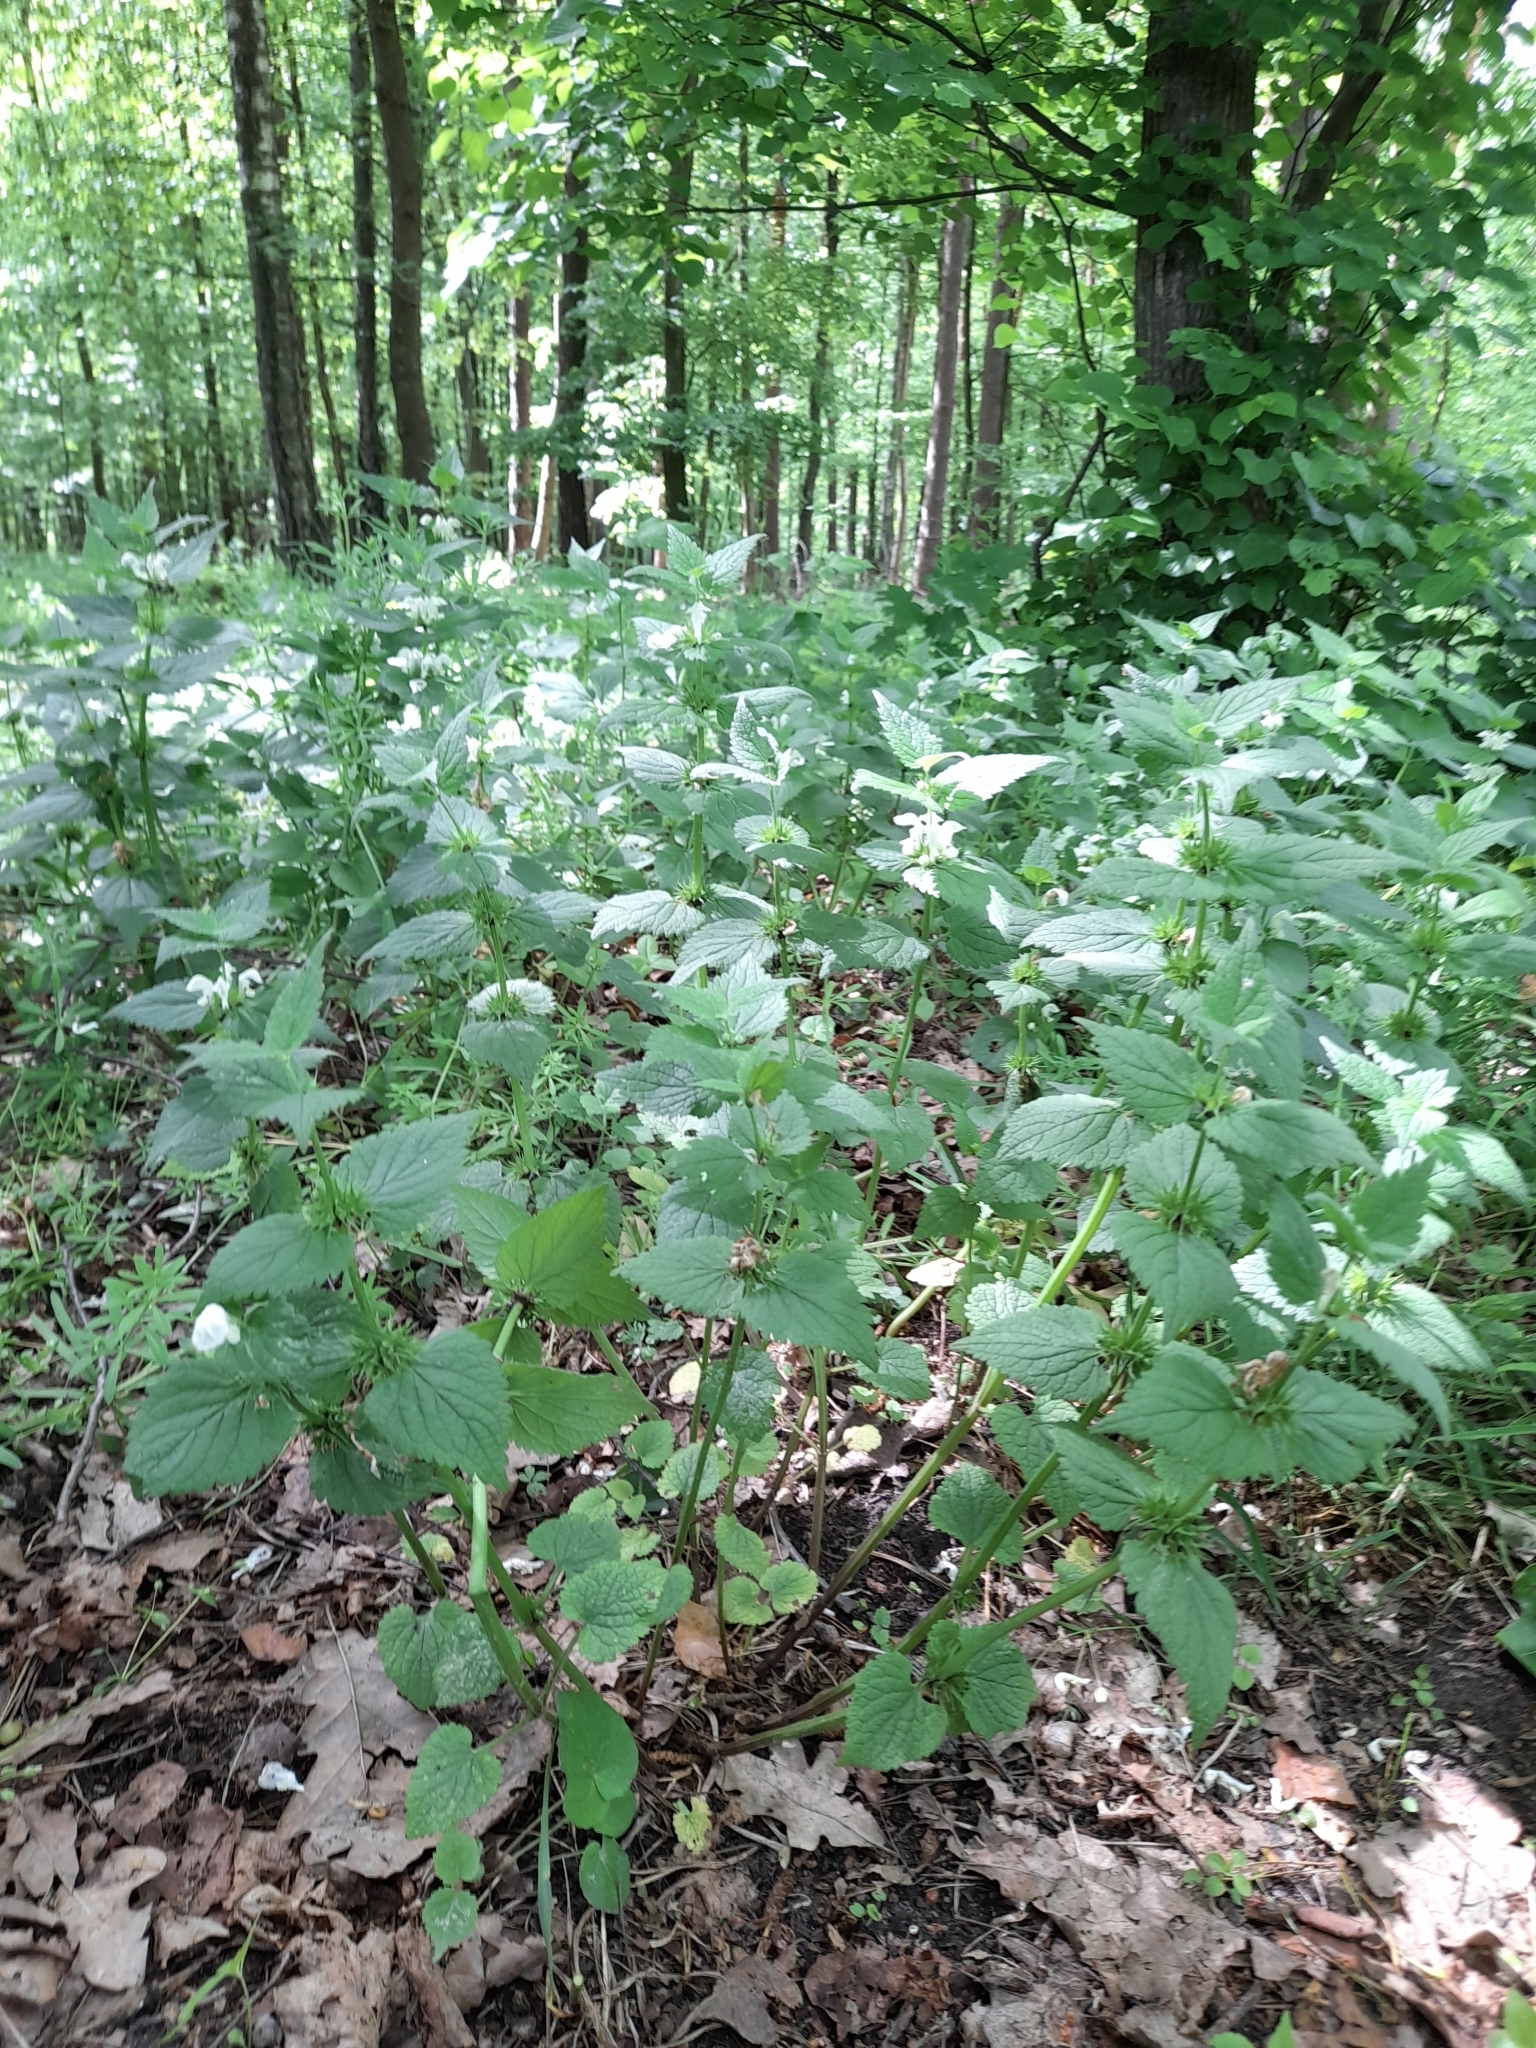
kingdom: Plantae
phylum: Tracheophyta
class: Magnoliopsida
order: Lamiales
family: Lamiaceae
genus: Lamium
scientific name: Lamium album
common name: White dead-nettle
